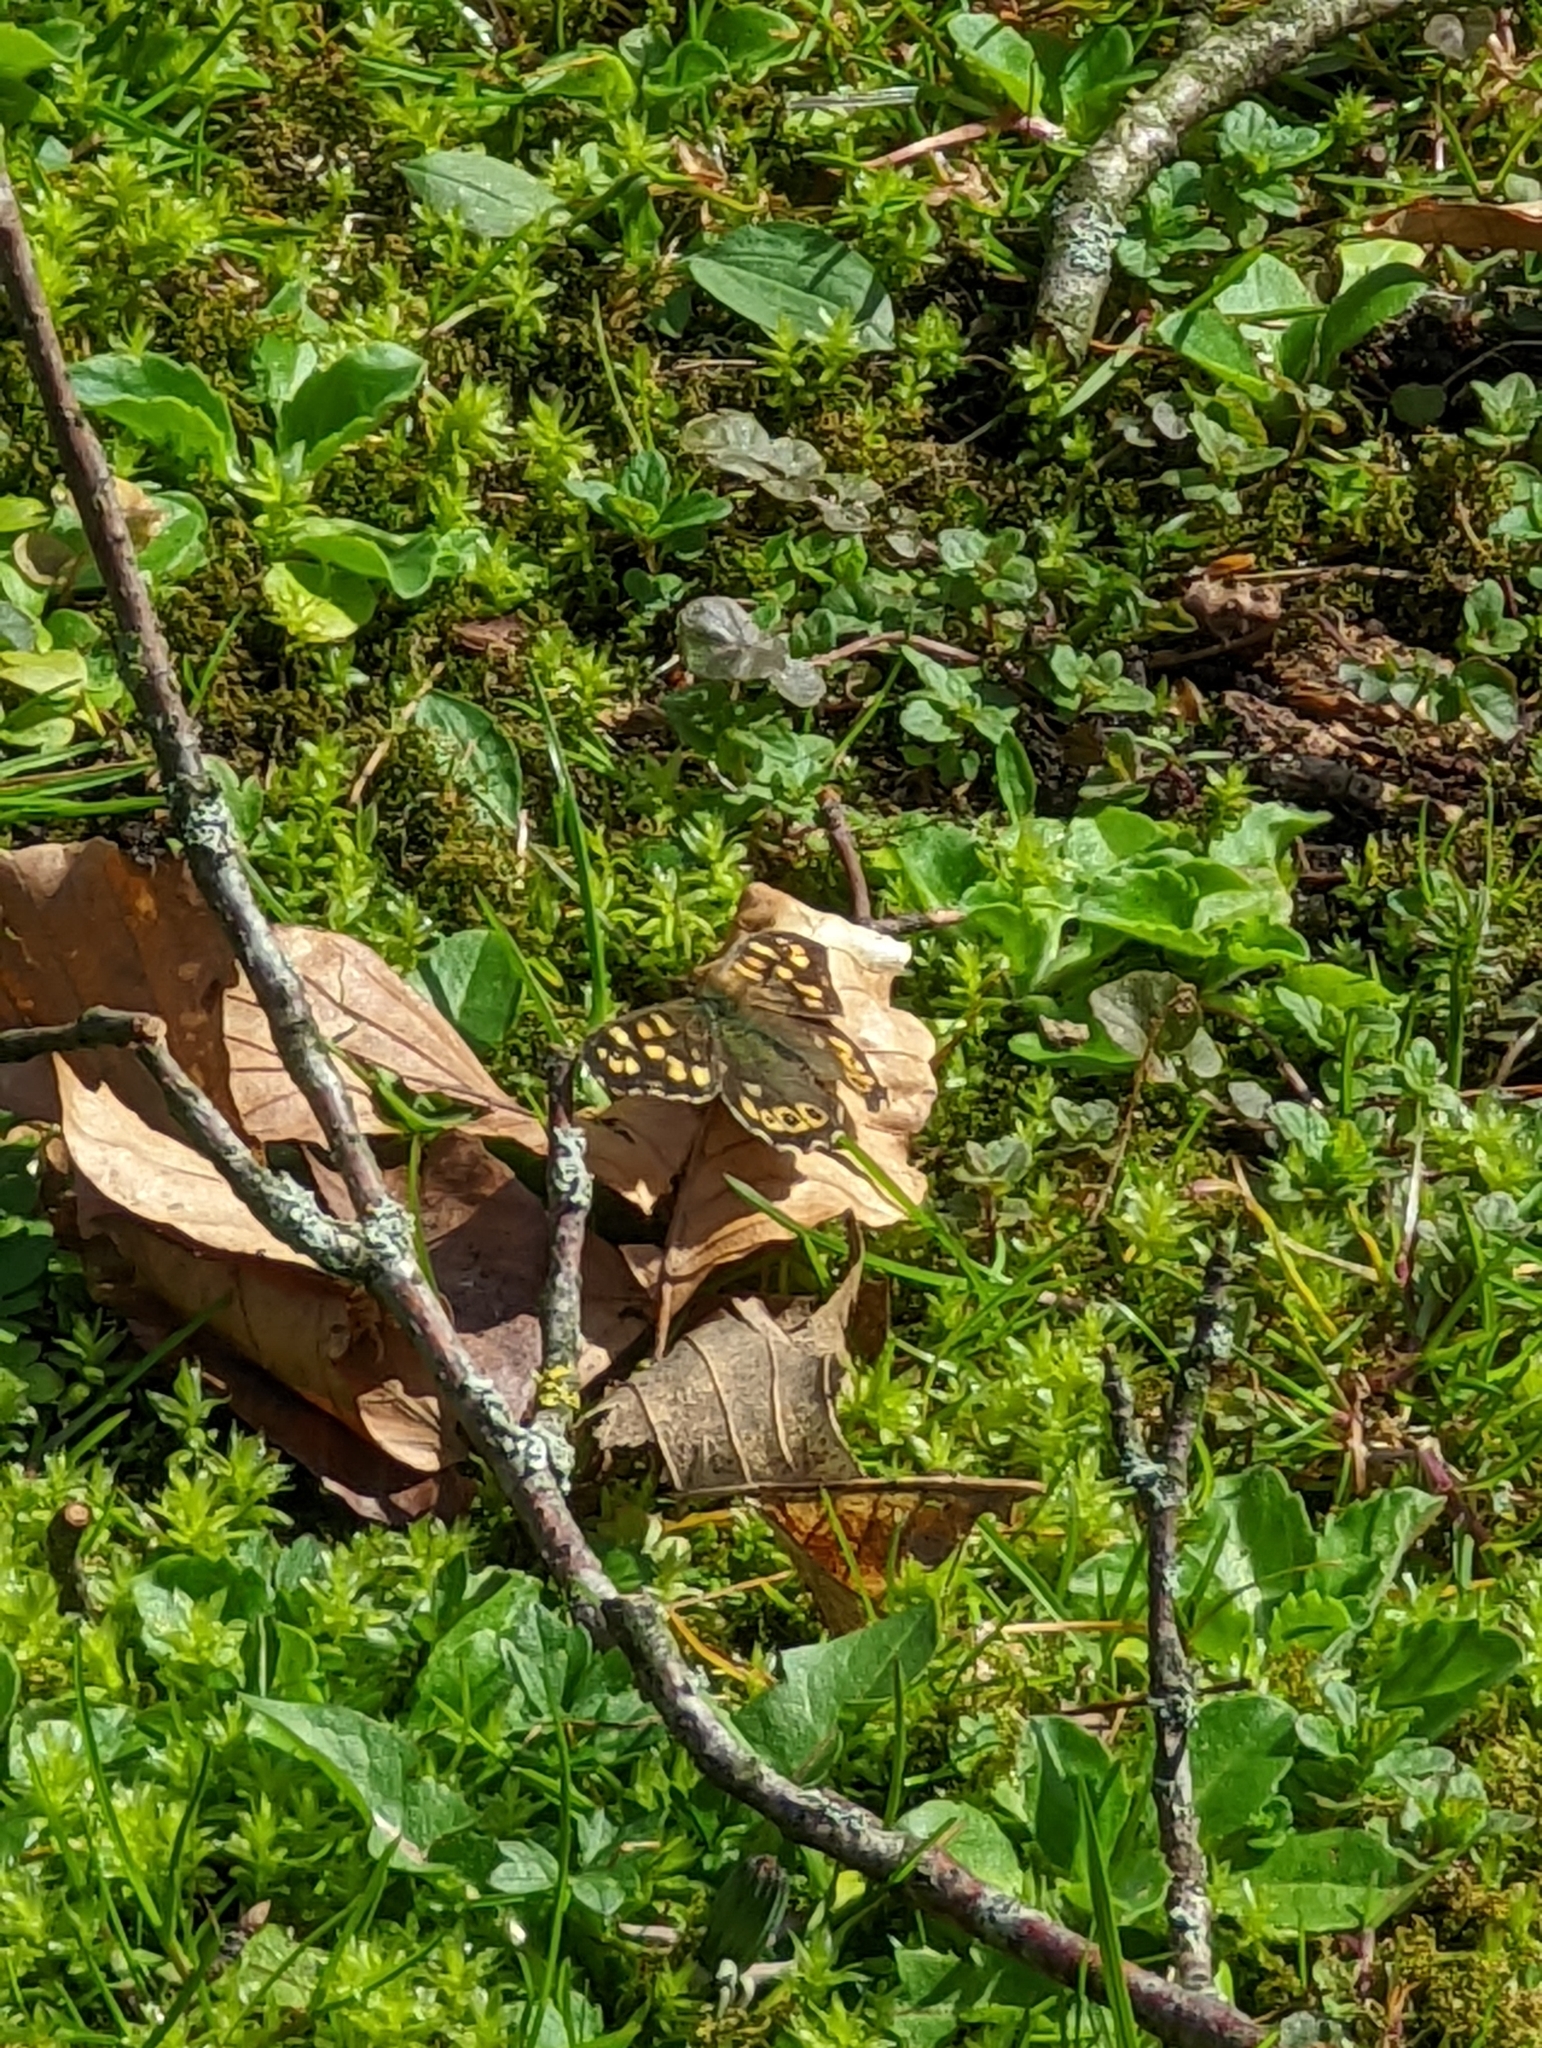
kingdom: Animalia
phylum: Arthropoda
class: Insecta
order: Lepidoptera
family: Nymphalidae
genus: Pararge
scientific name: Pararge aegeria
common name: Speckled wood
